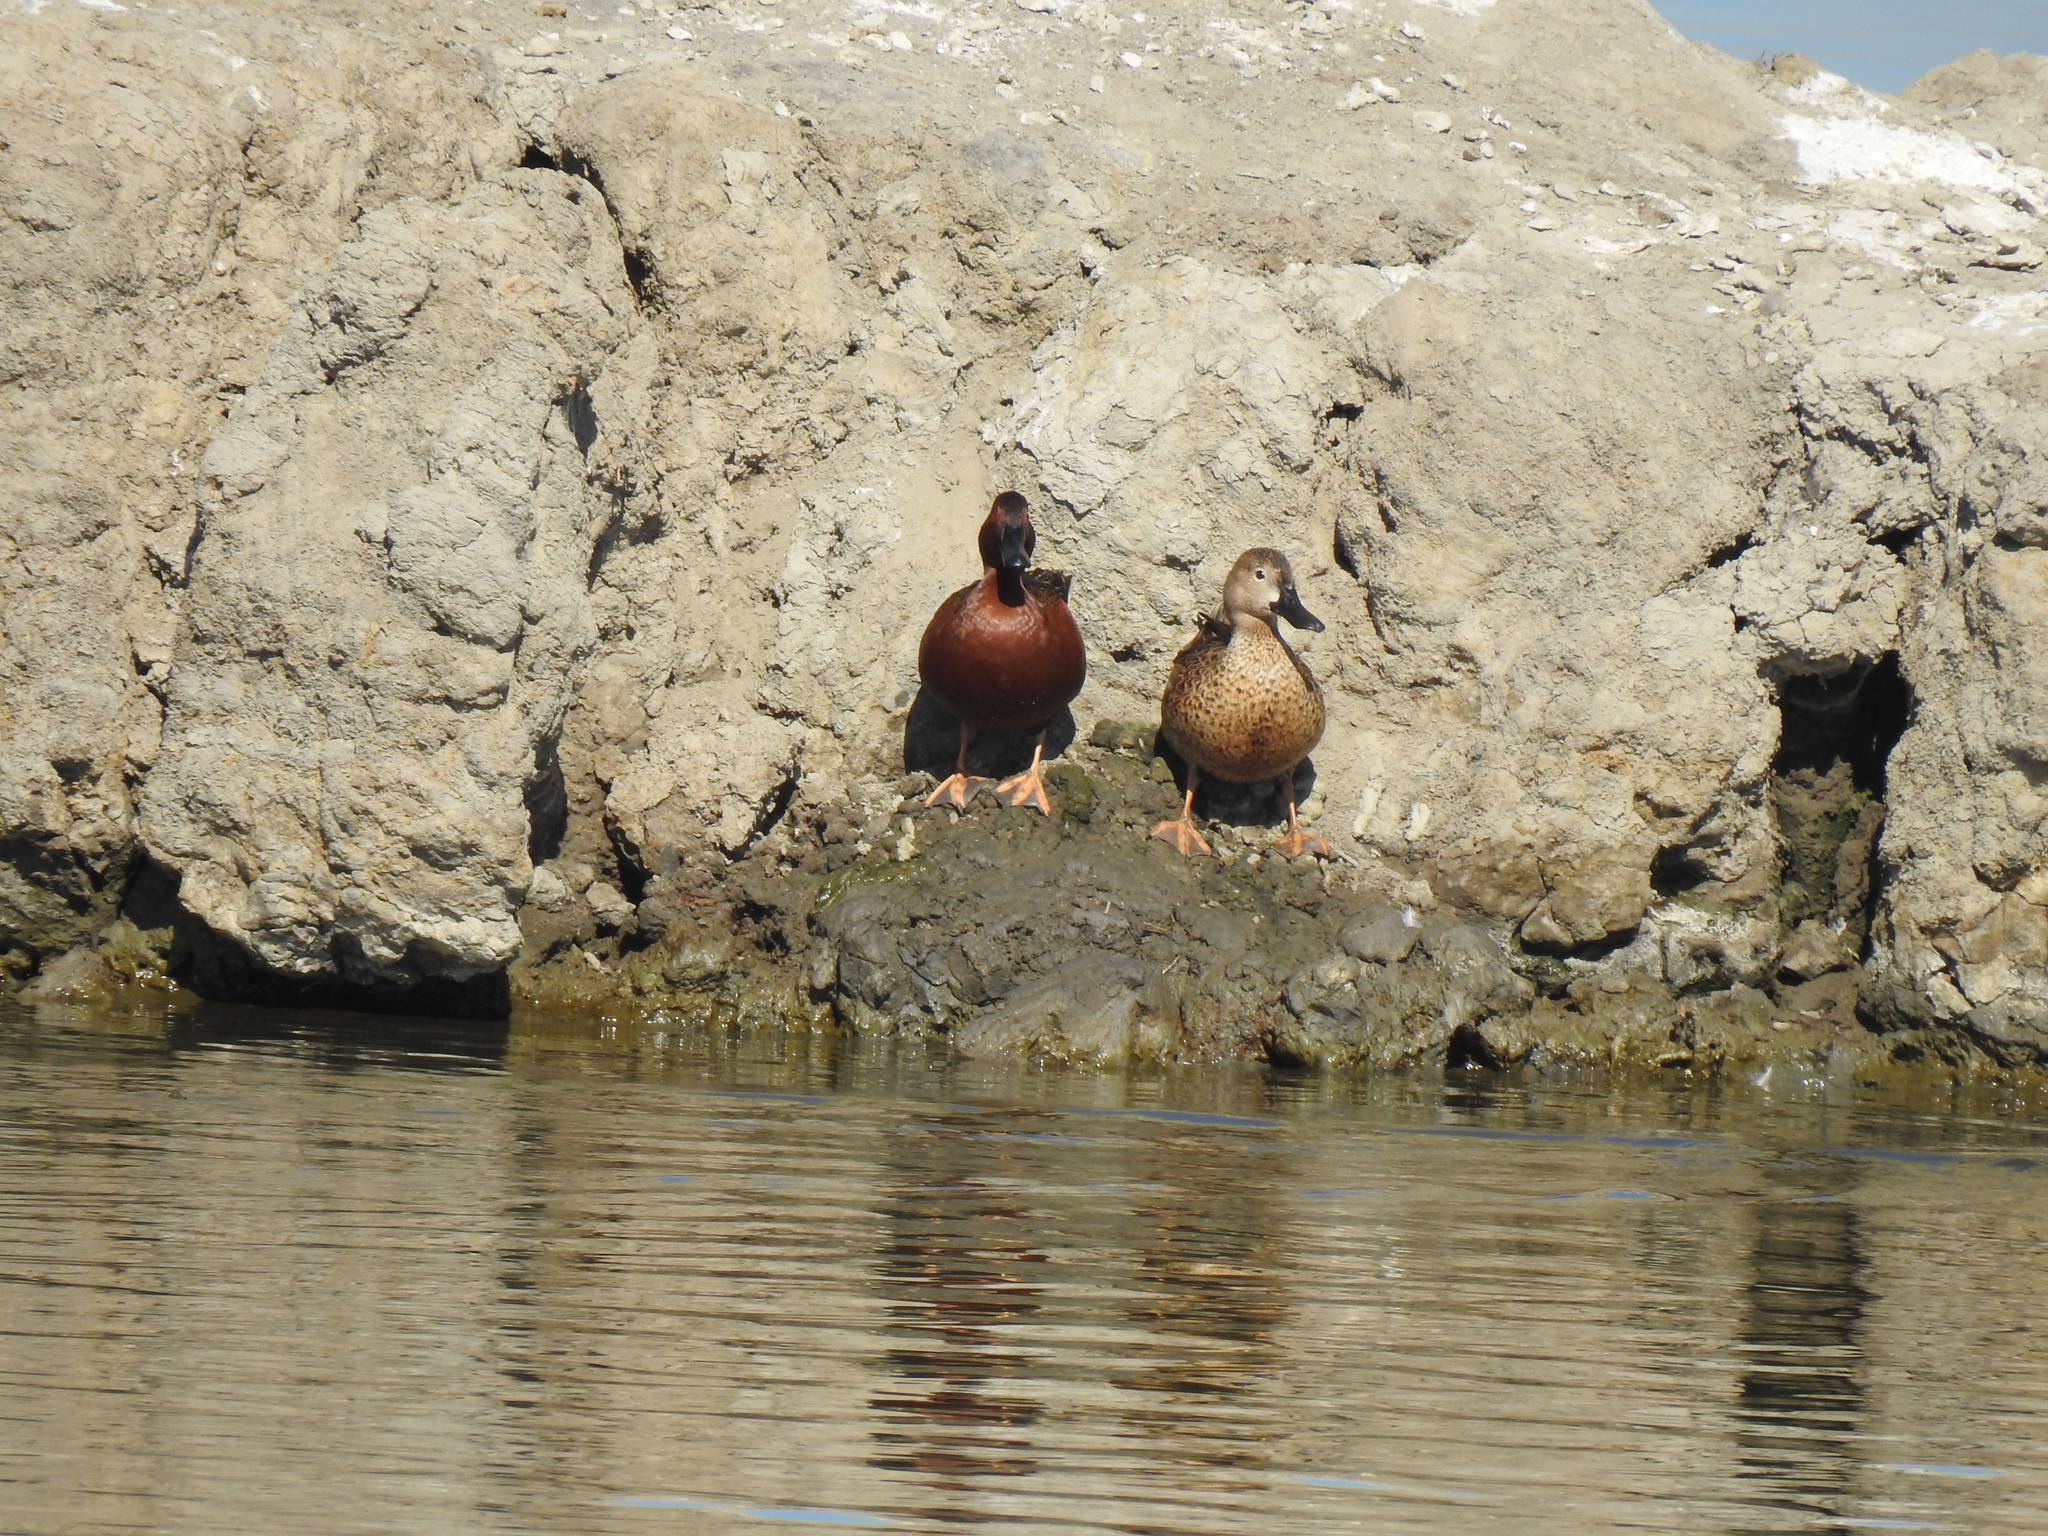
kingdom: Animalia
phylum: Chordata
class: Aves
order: Anseriformes
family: Anatidae
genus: Spatula
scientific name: Spatula cyanoptera
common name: Cinnamon teal
